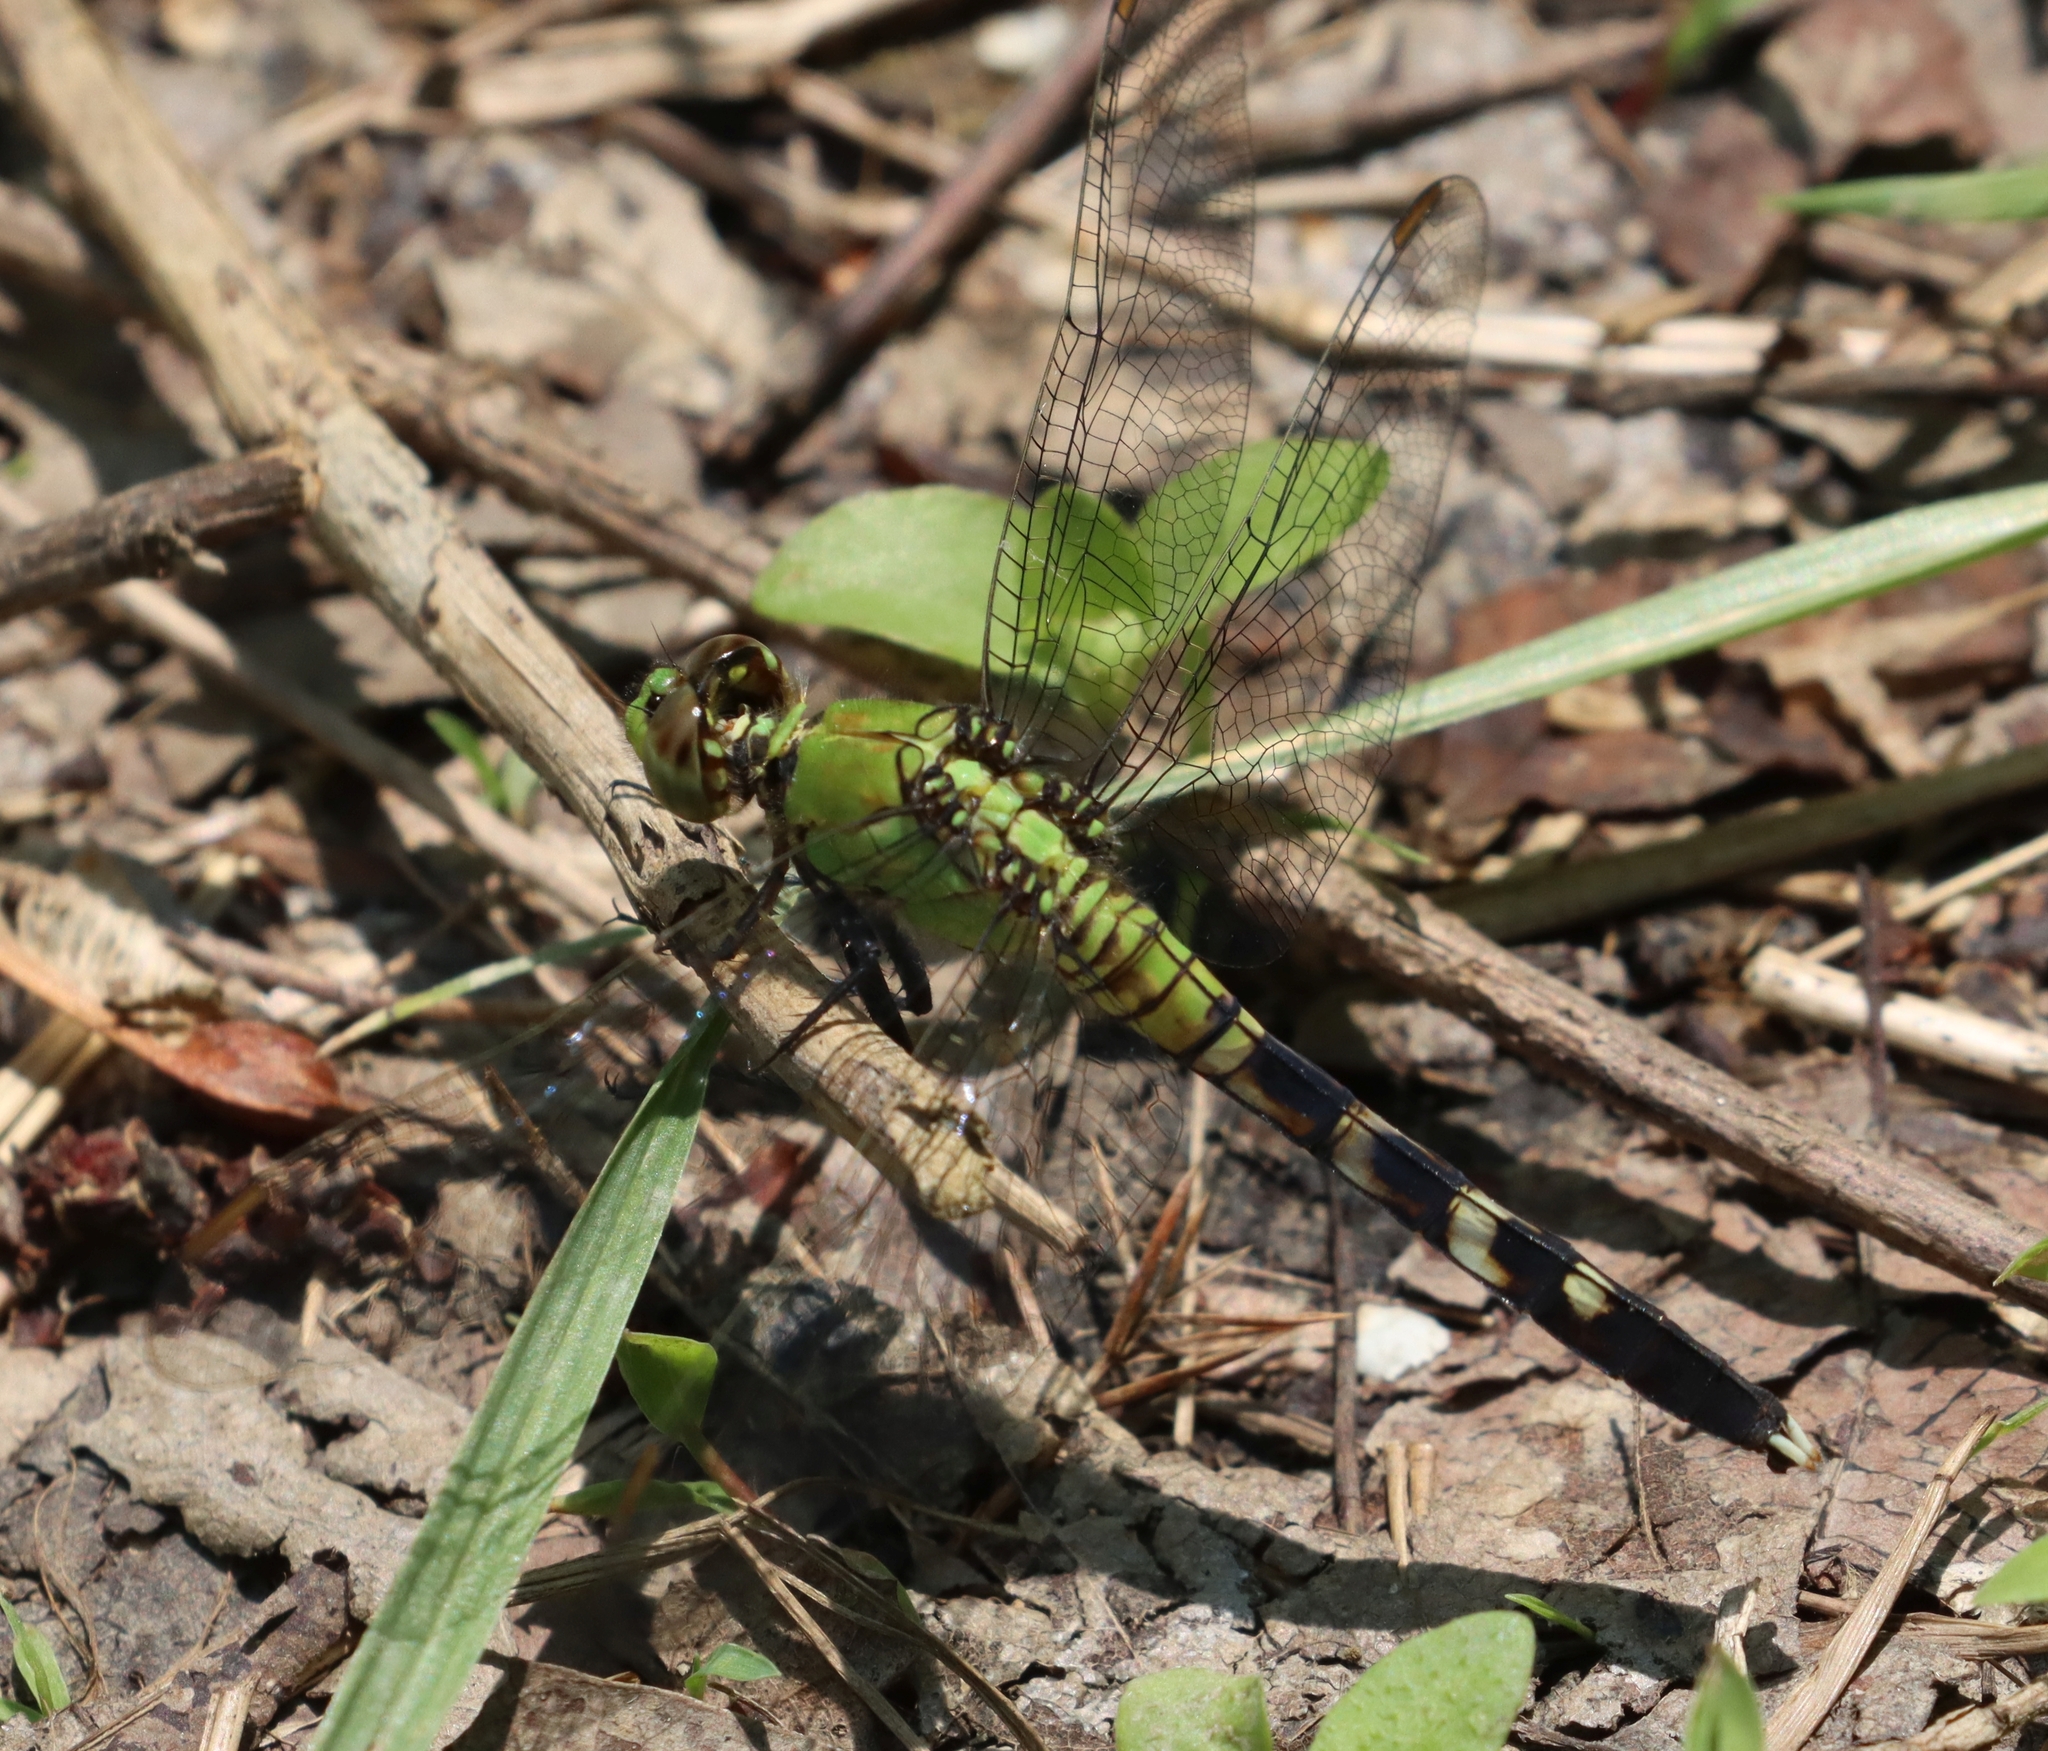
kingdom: Animalia
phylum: Arthropoda
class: Insecta
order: Odonata
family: Libellulidae
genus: Erythemis
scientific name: Erythemis simplicicollis
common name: Eastern pondhawk
